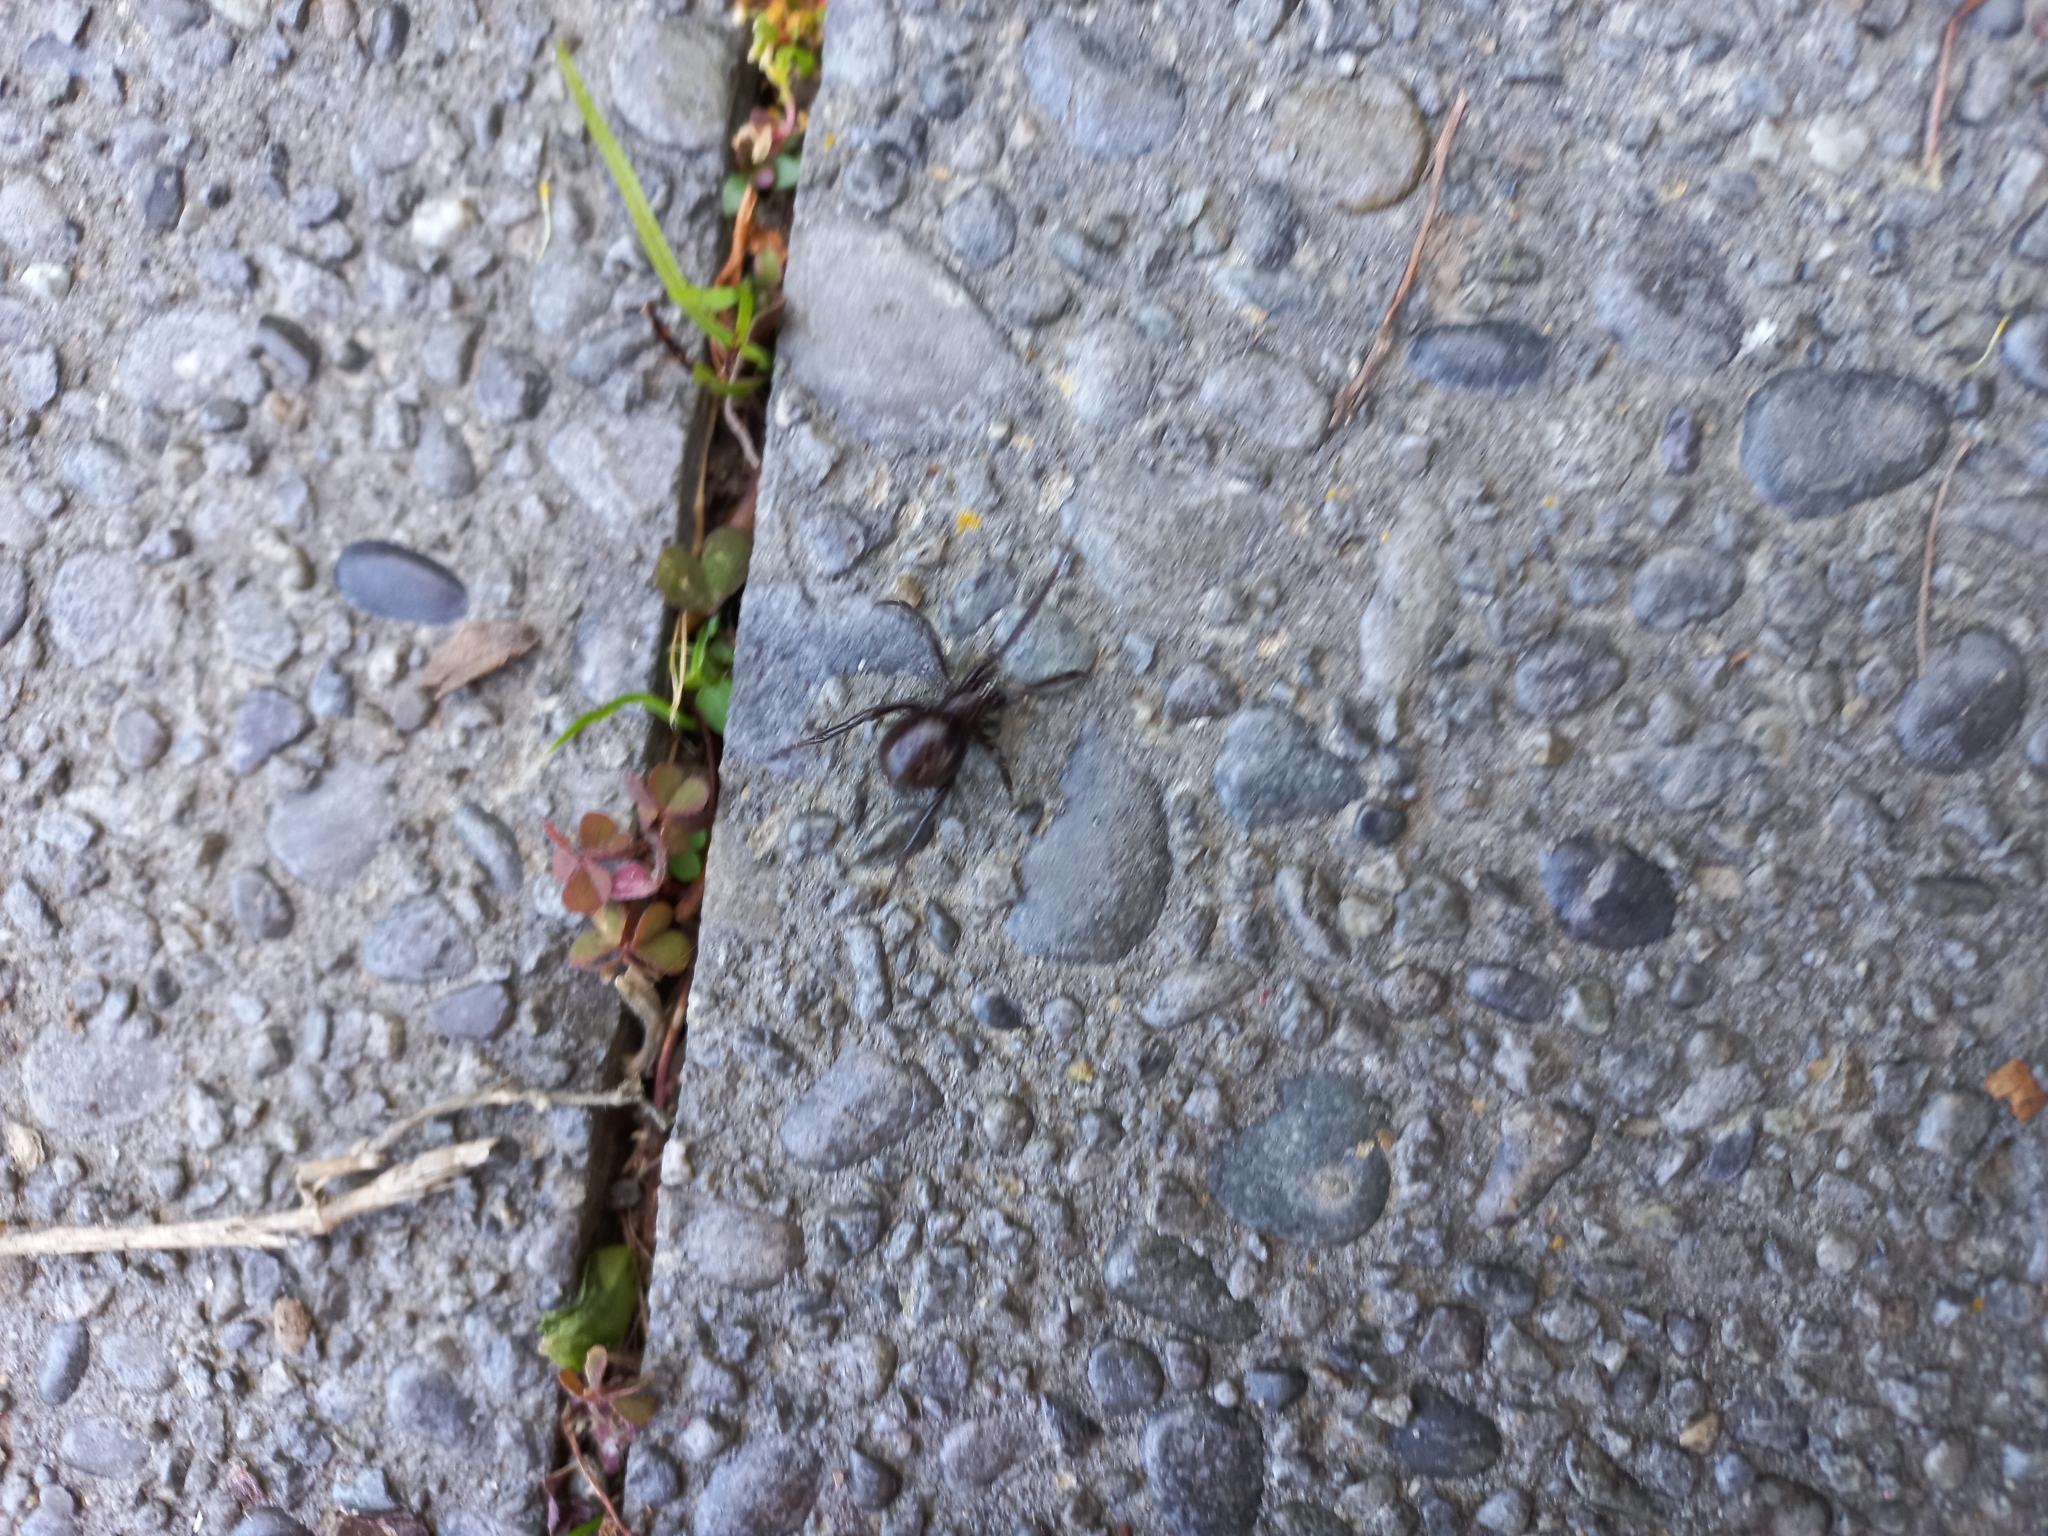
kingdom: Animalia
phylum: Arthropoda
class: Arachnida
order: Araneae
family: Theridiidae
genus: Steatoda
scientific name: Steatoda capensis
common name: Cobweb weaver
